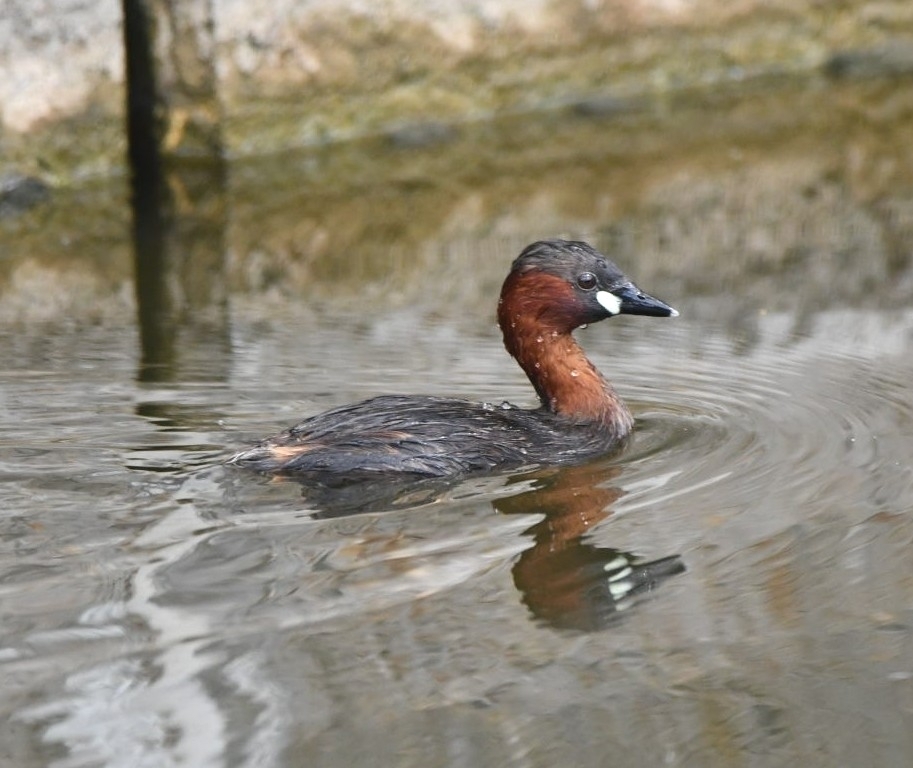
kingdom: Animalia
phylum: Chordata
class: Aves
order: Podicipediformes
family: Podicipedidae
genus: Tachybaptus
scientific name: Tachybaptus ruficollis
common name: Little grebe
